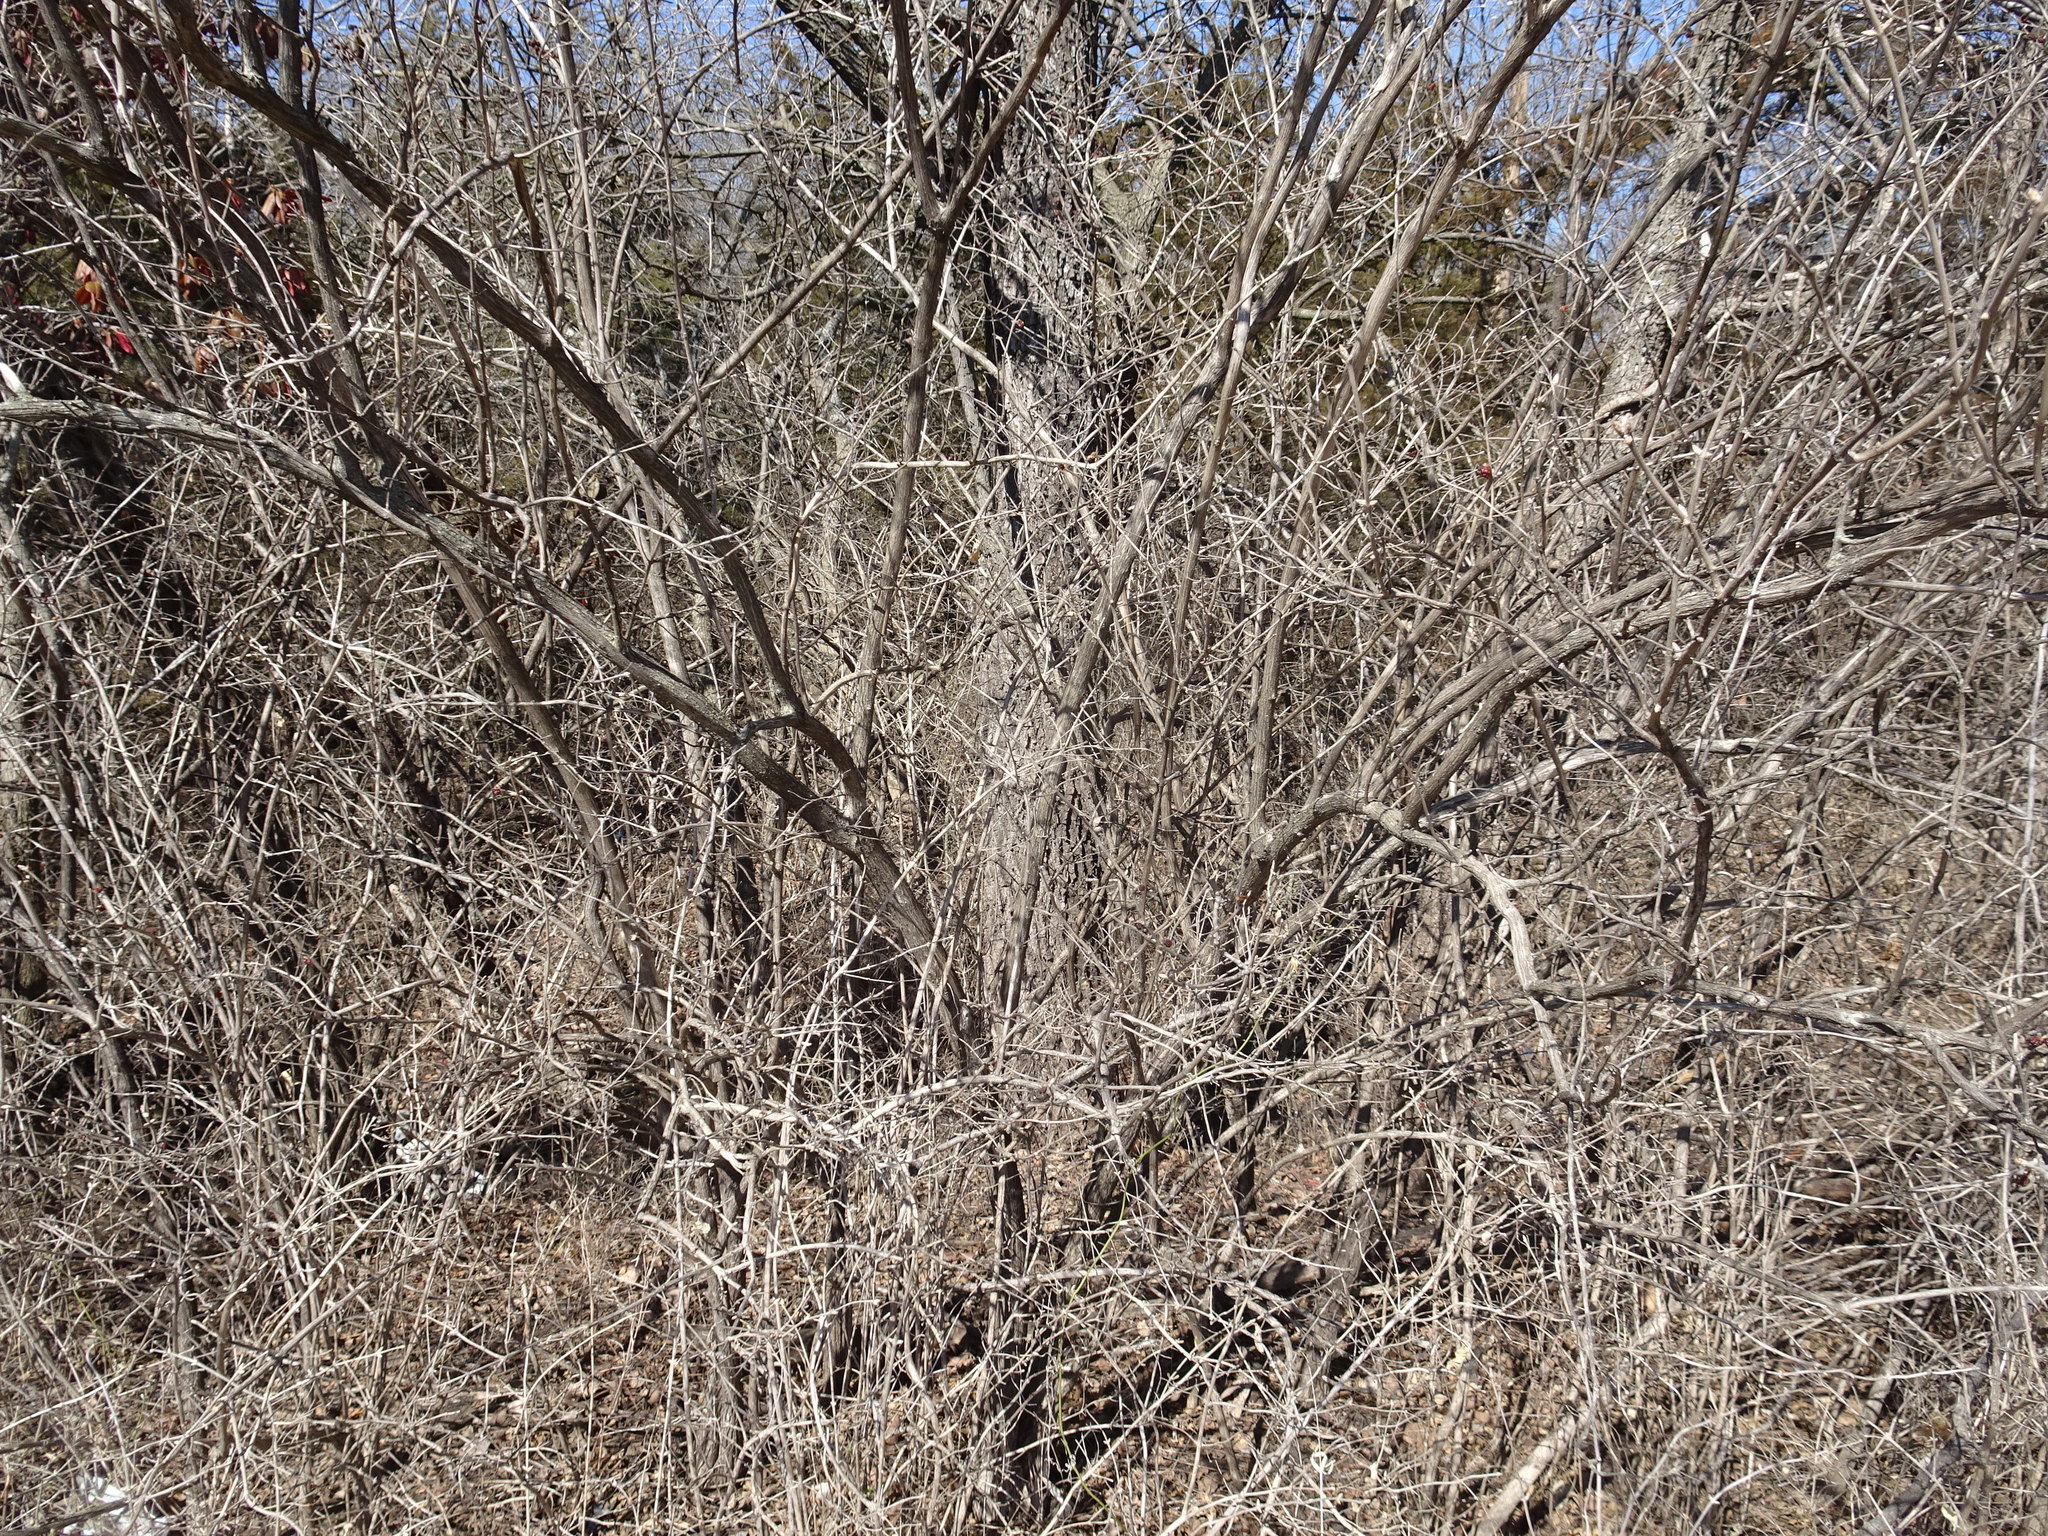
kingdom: Plantae
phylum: Tracheophyta
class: Magnoliopsida
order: Dipsacales
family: Caprifoliaceae
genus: Lonicera
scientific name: Lonicera maackii
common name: Amur honeysuckle
